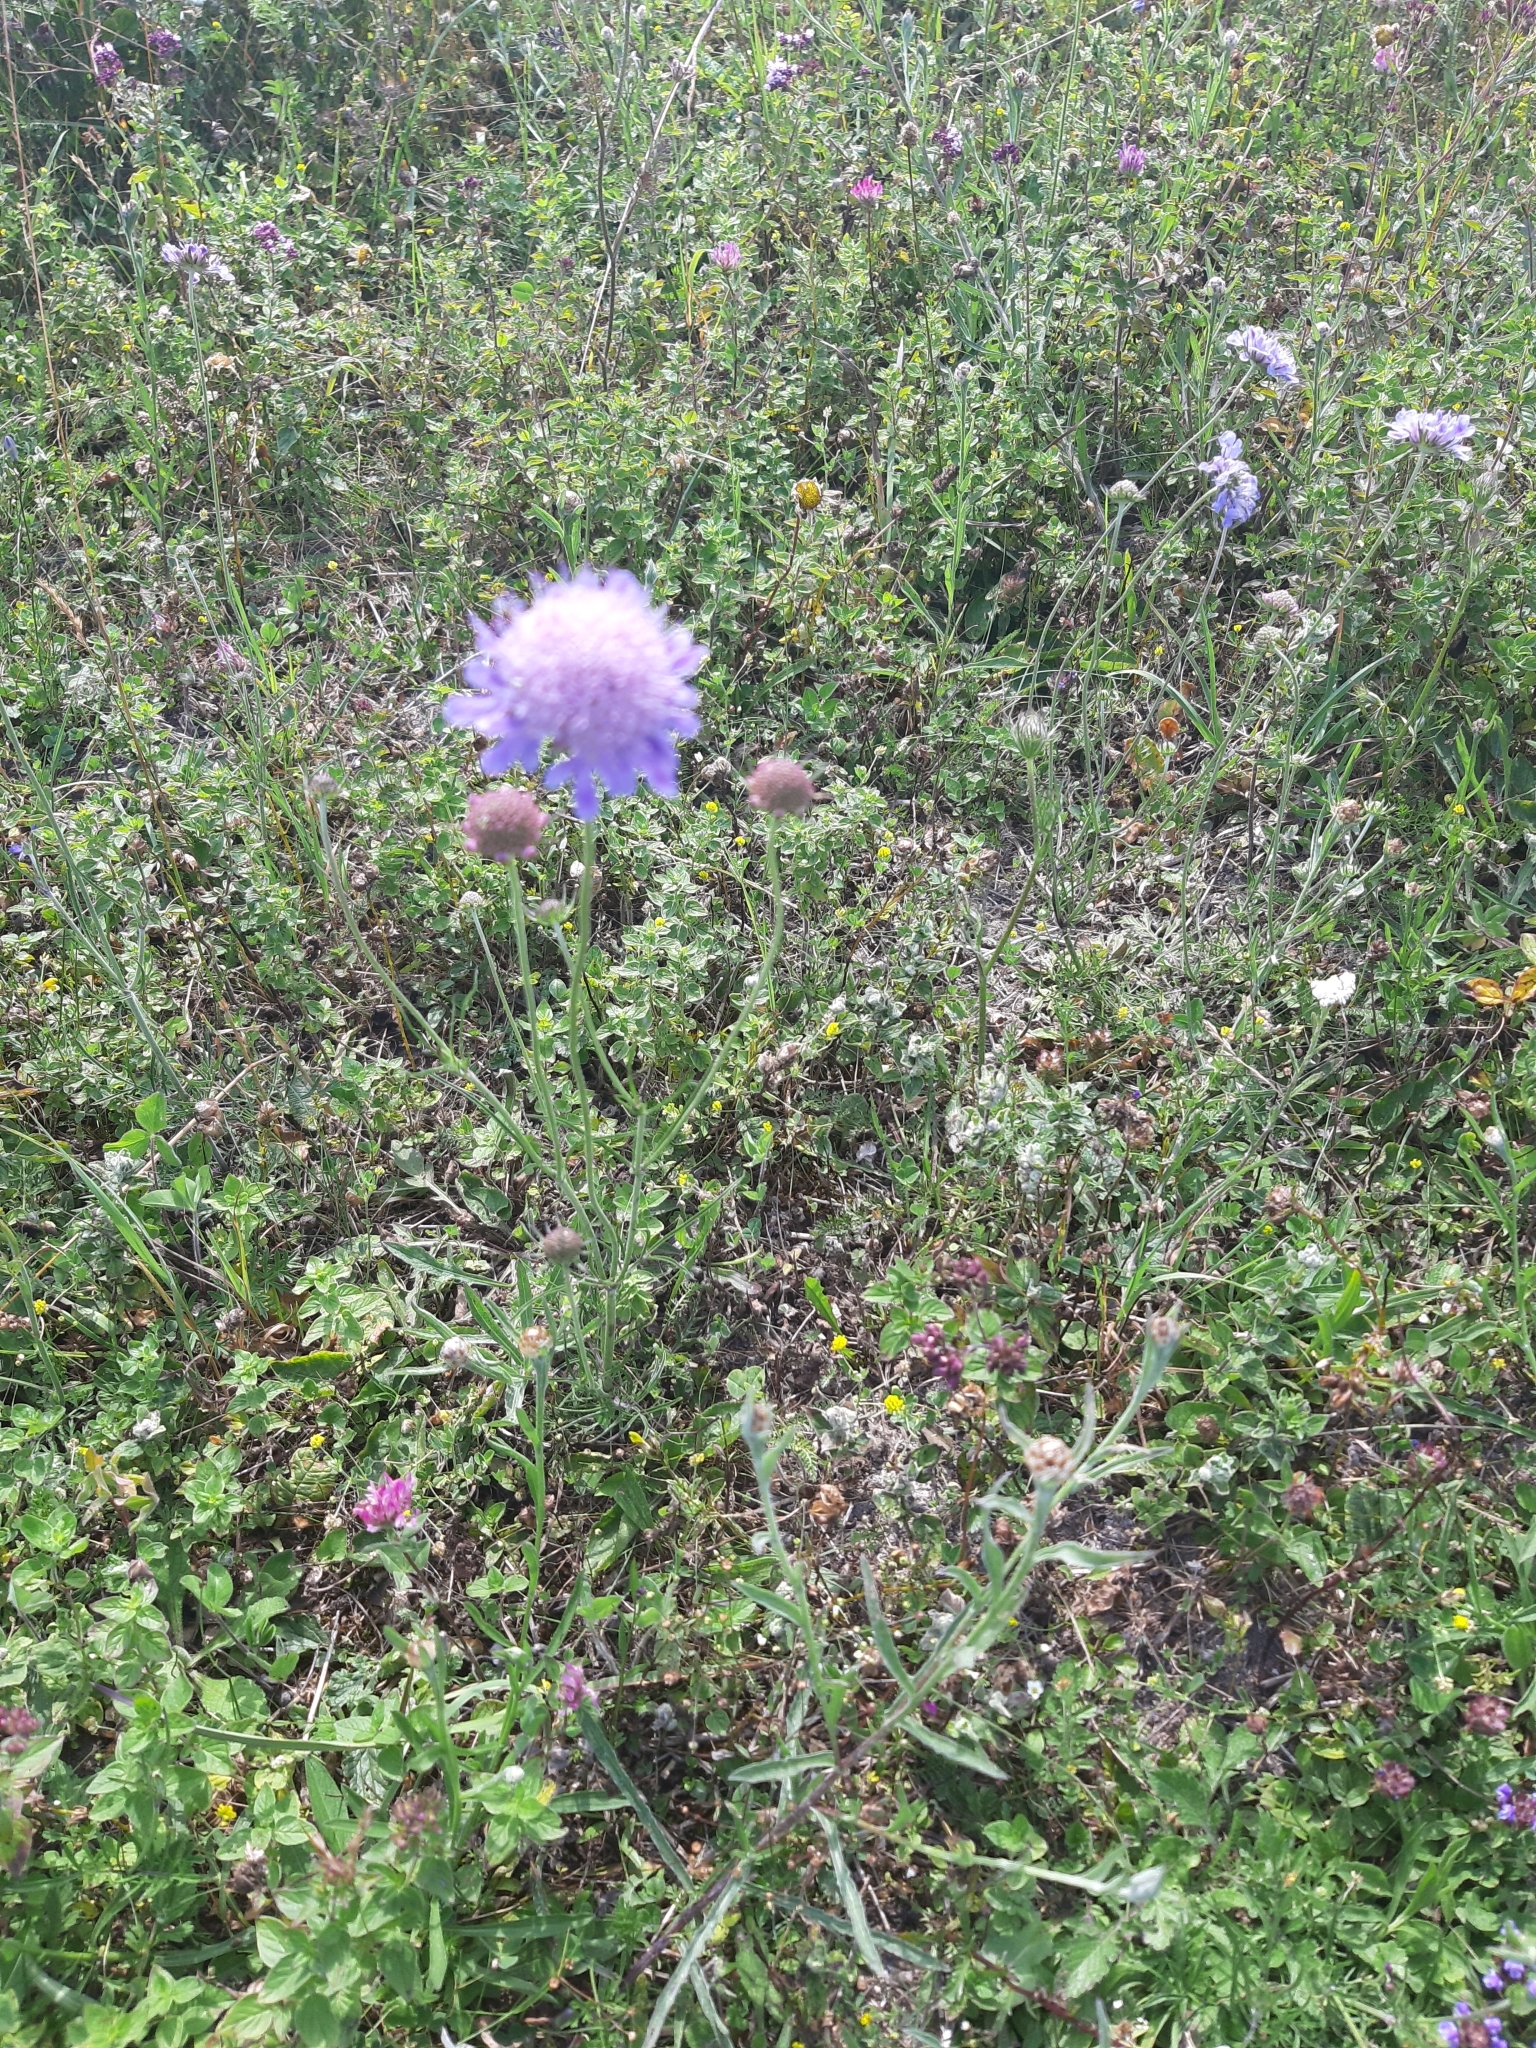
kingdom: Plantae
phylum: Tracheophyta
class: Magnoliopsida
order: Dipsacales
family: Caprifoliaceae
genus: Knautia
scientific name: Knautia arvensis
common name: Field scabiosa
